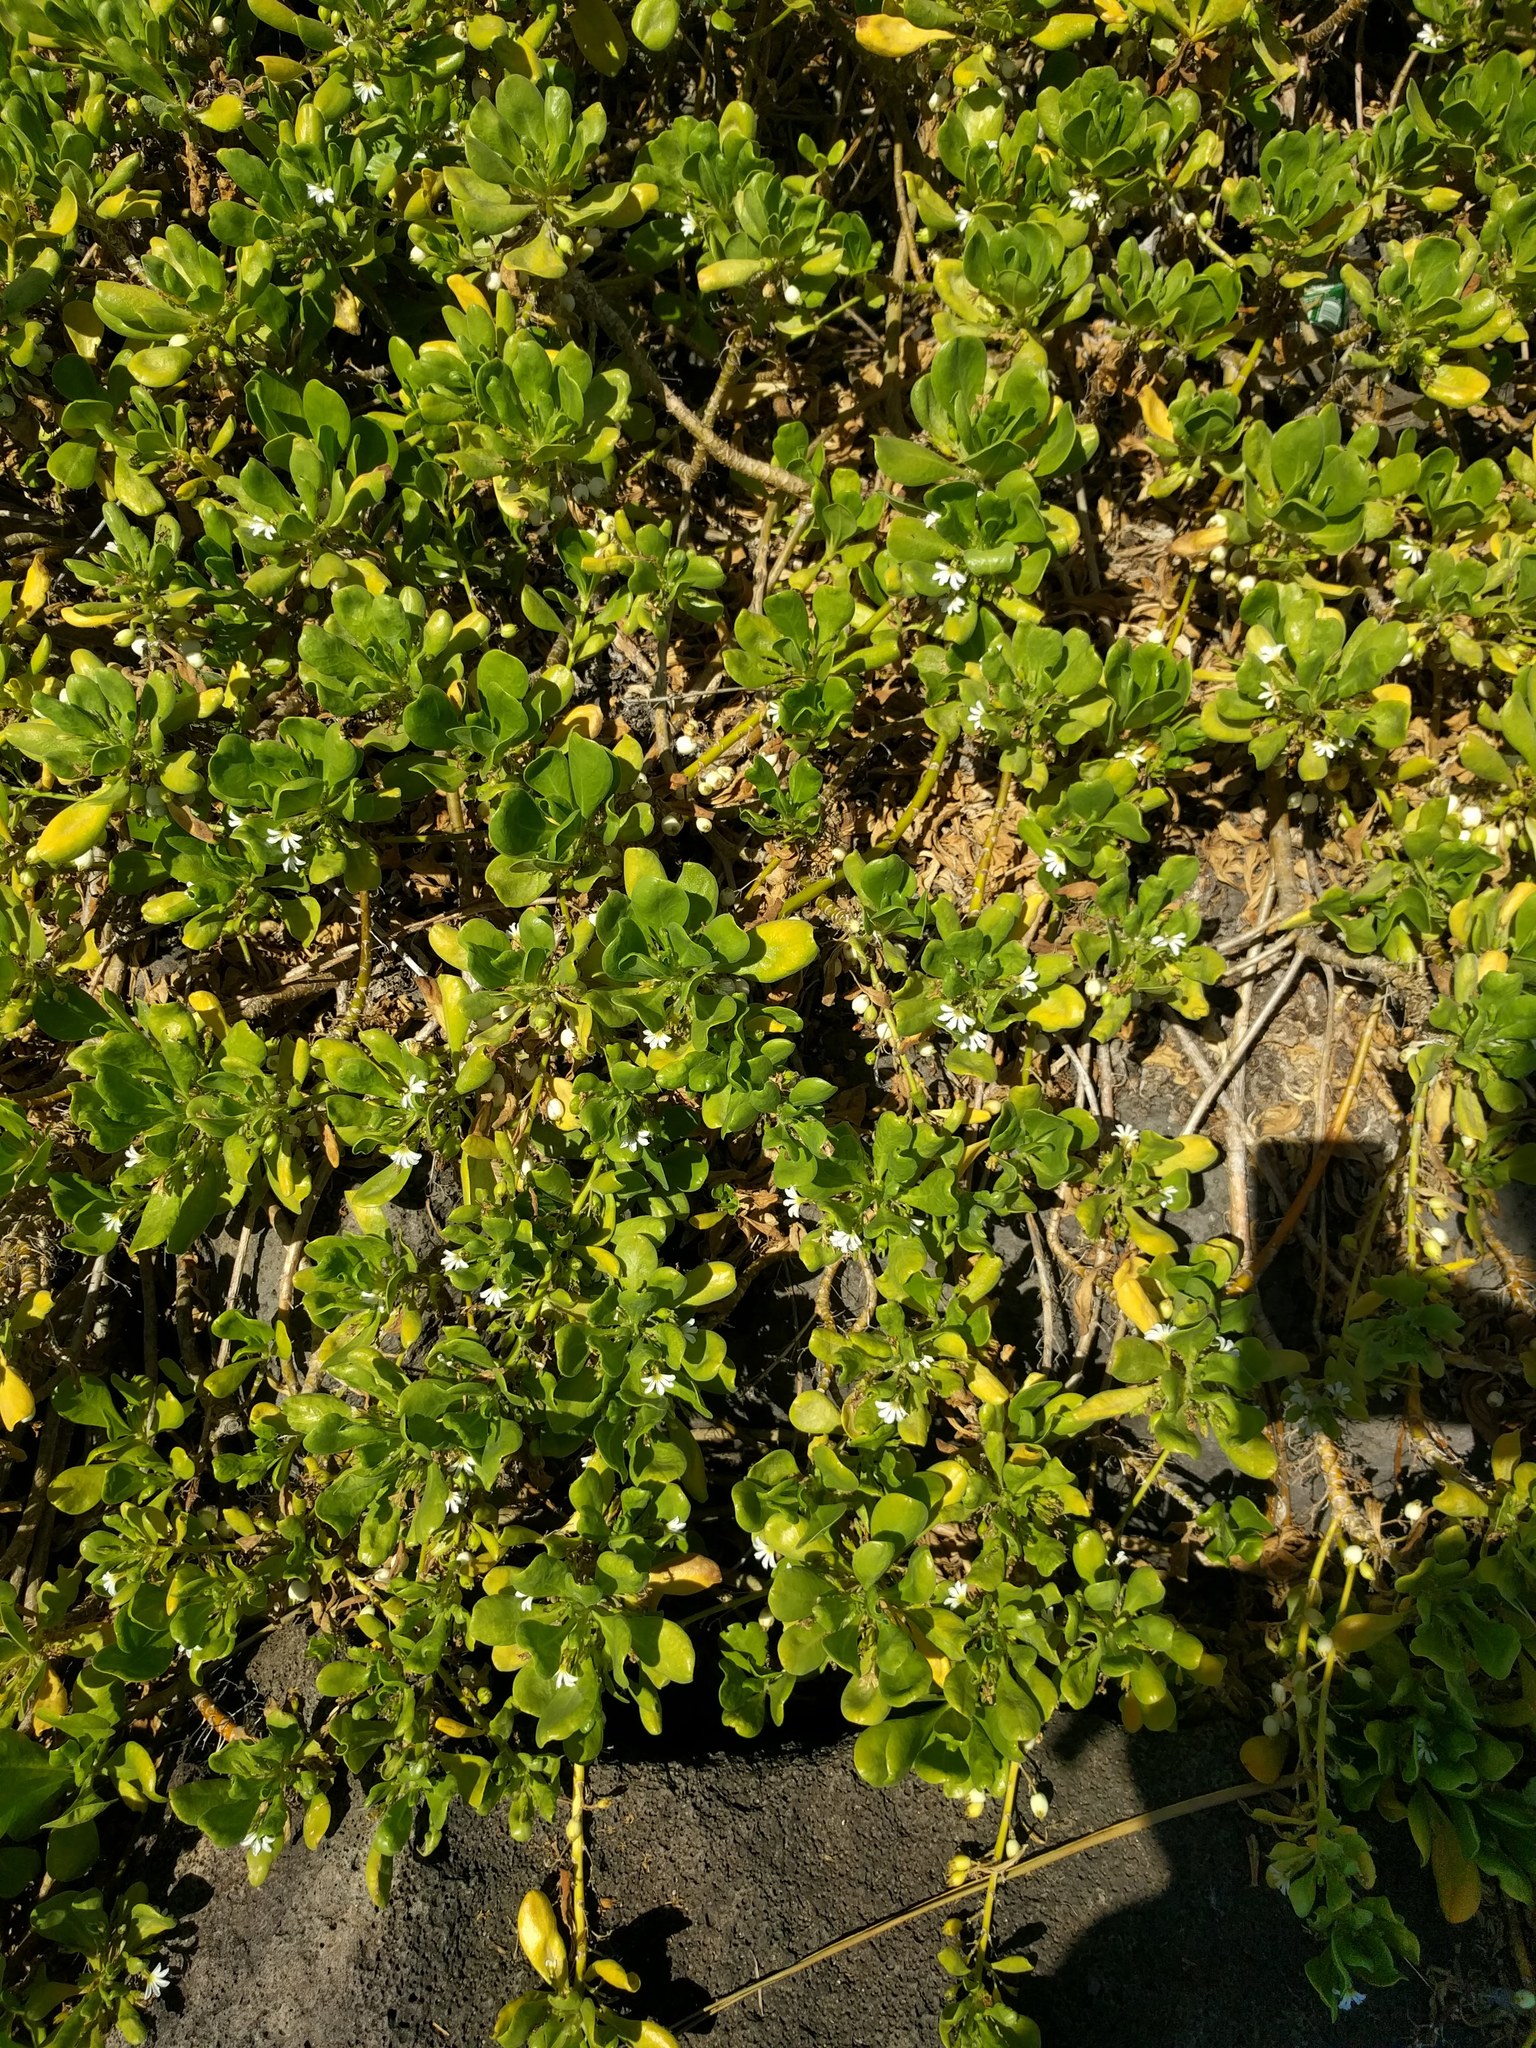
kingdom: Plantae
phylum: Tracheophyta
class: Magnoliopsida
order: Asterales
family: Goodeniaceae
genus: Scaevola
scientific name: Scaevola taccada
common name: Sea lettucetree
